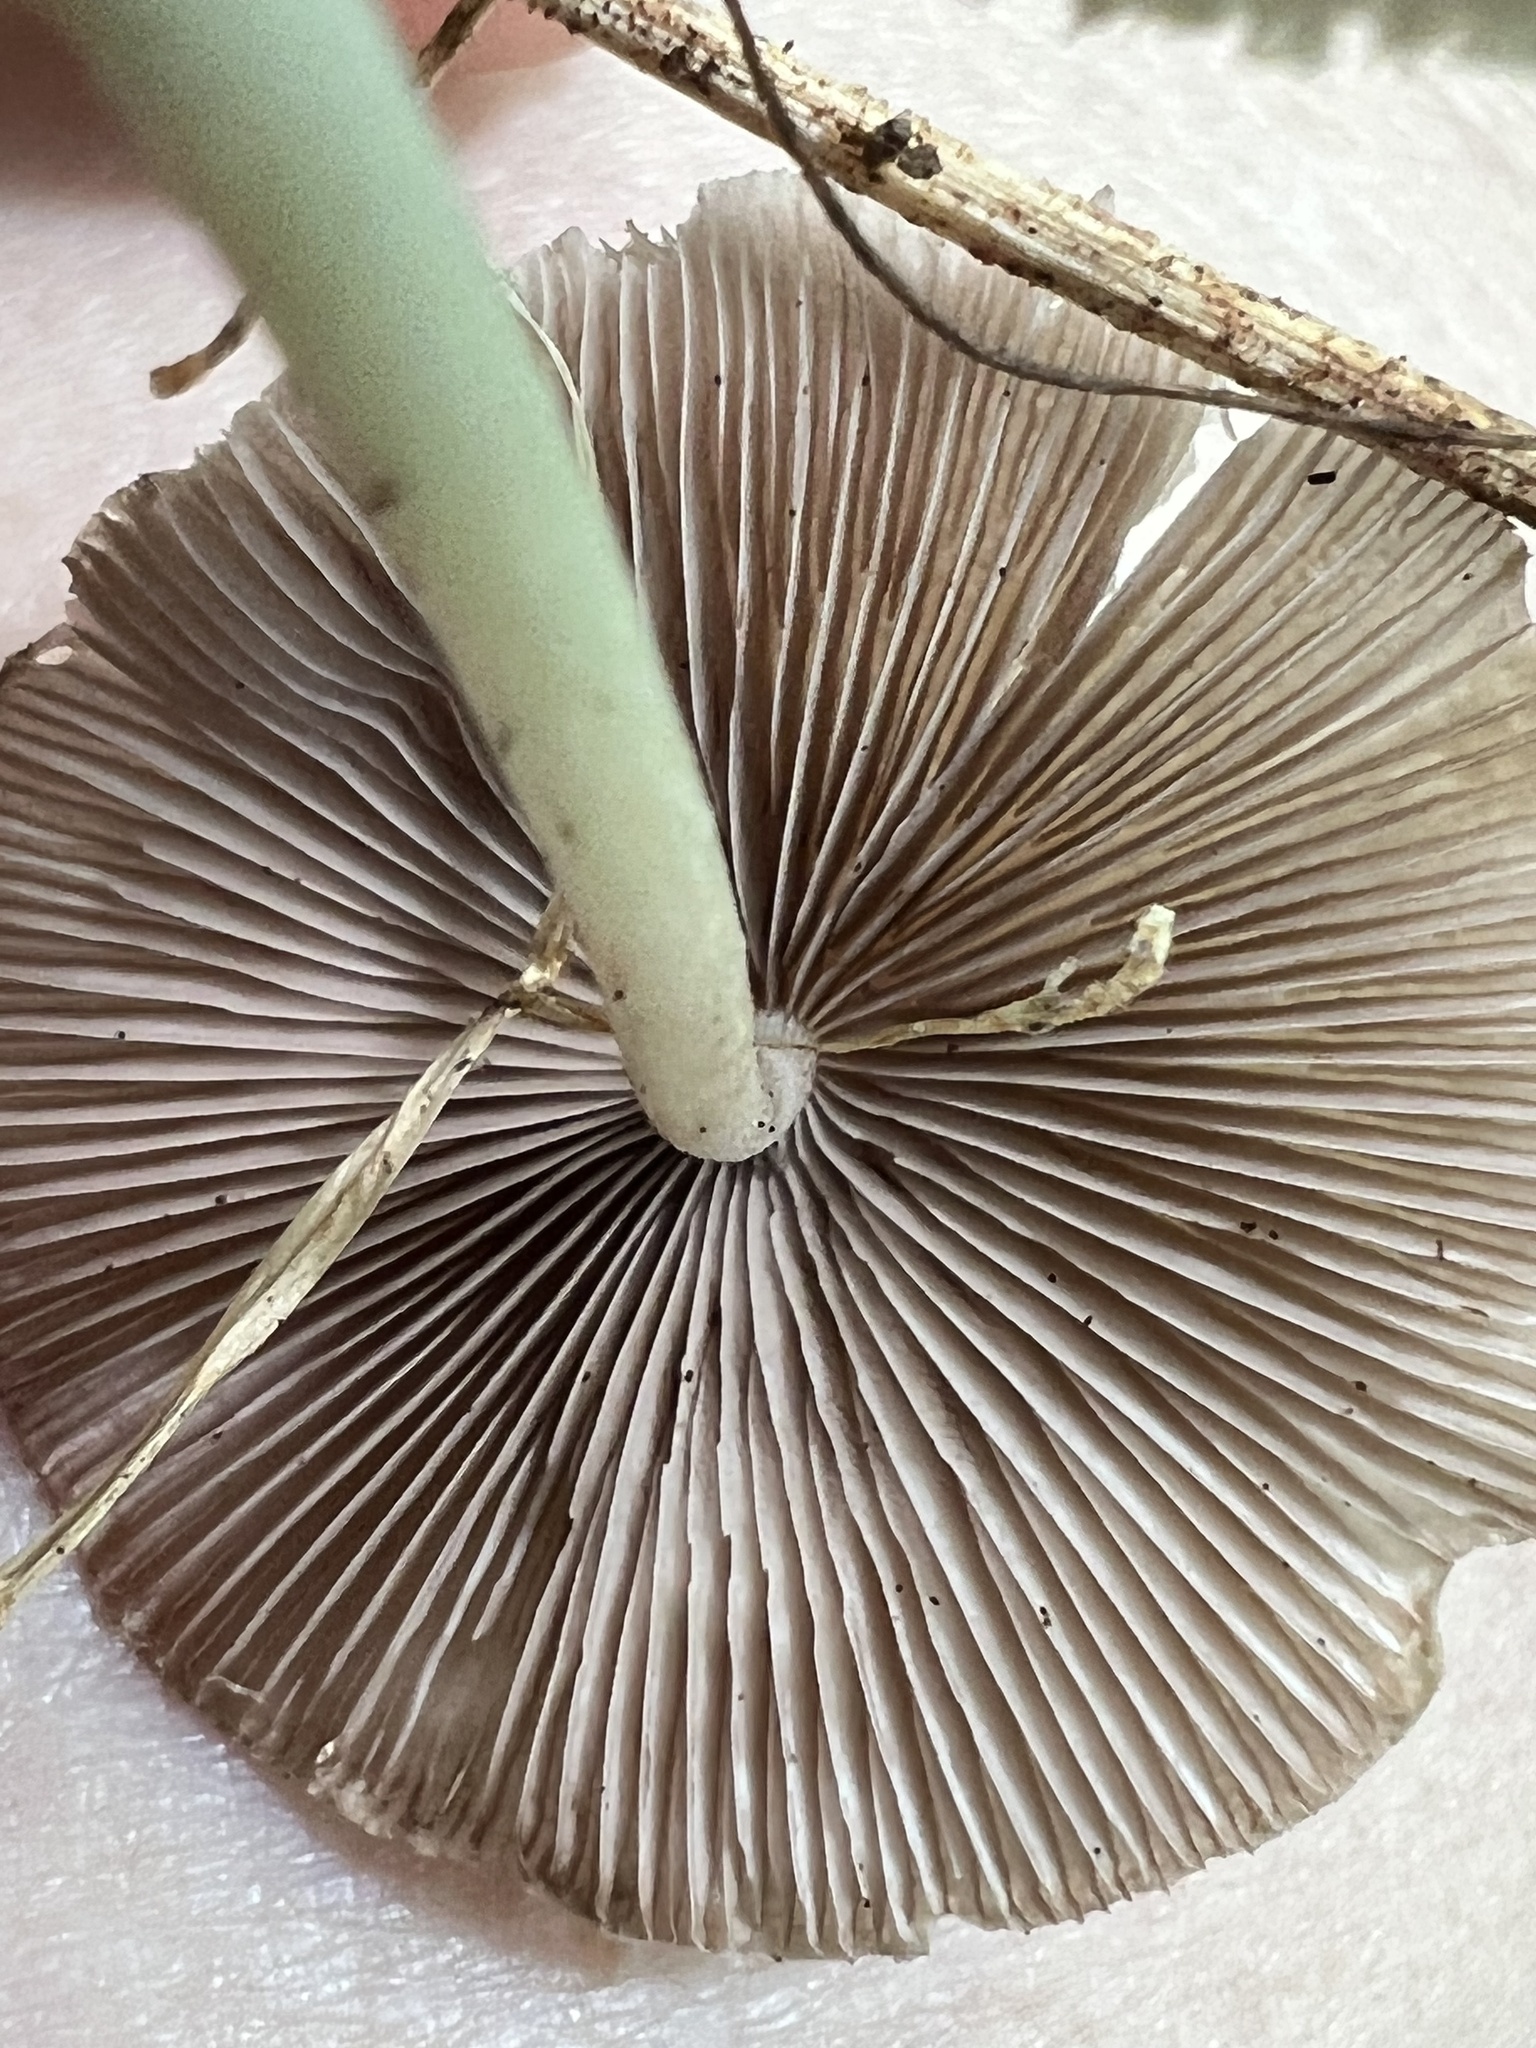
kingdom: Fungi
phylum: Basidiomycota
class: Agaricomycetes
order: Agaricales
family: Psathyrellaceae
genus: Candolleomyces
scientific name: Candolleomyces candolleanus
